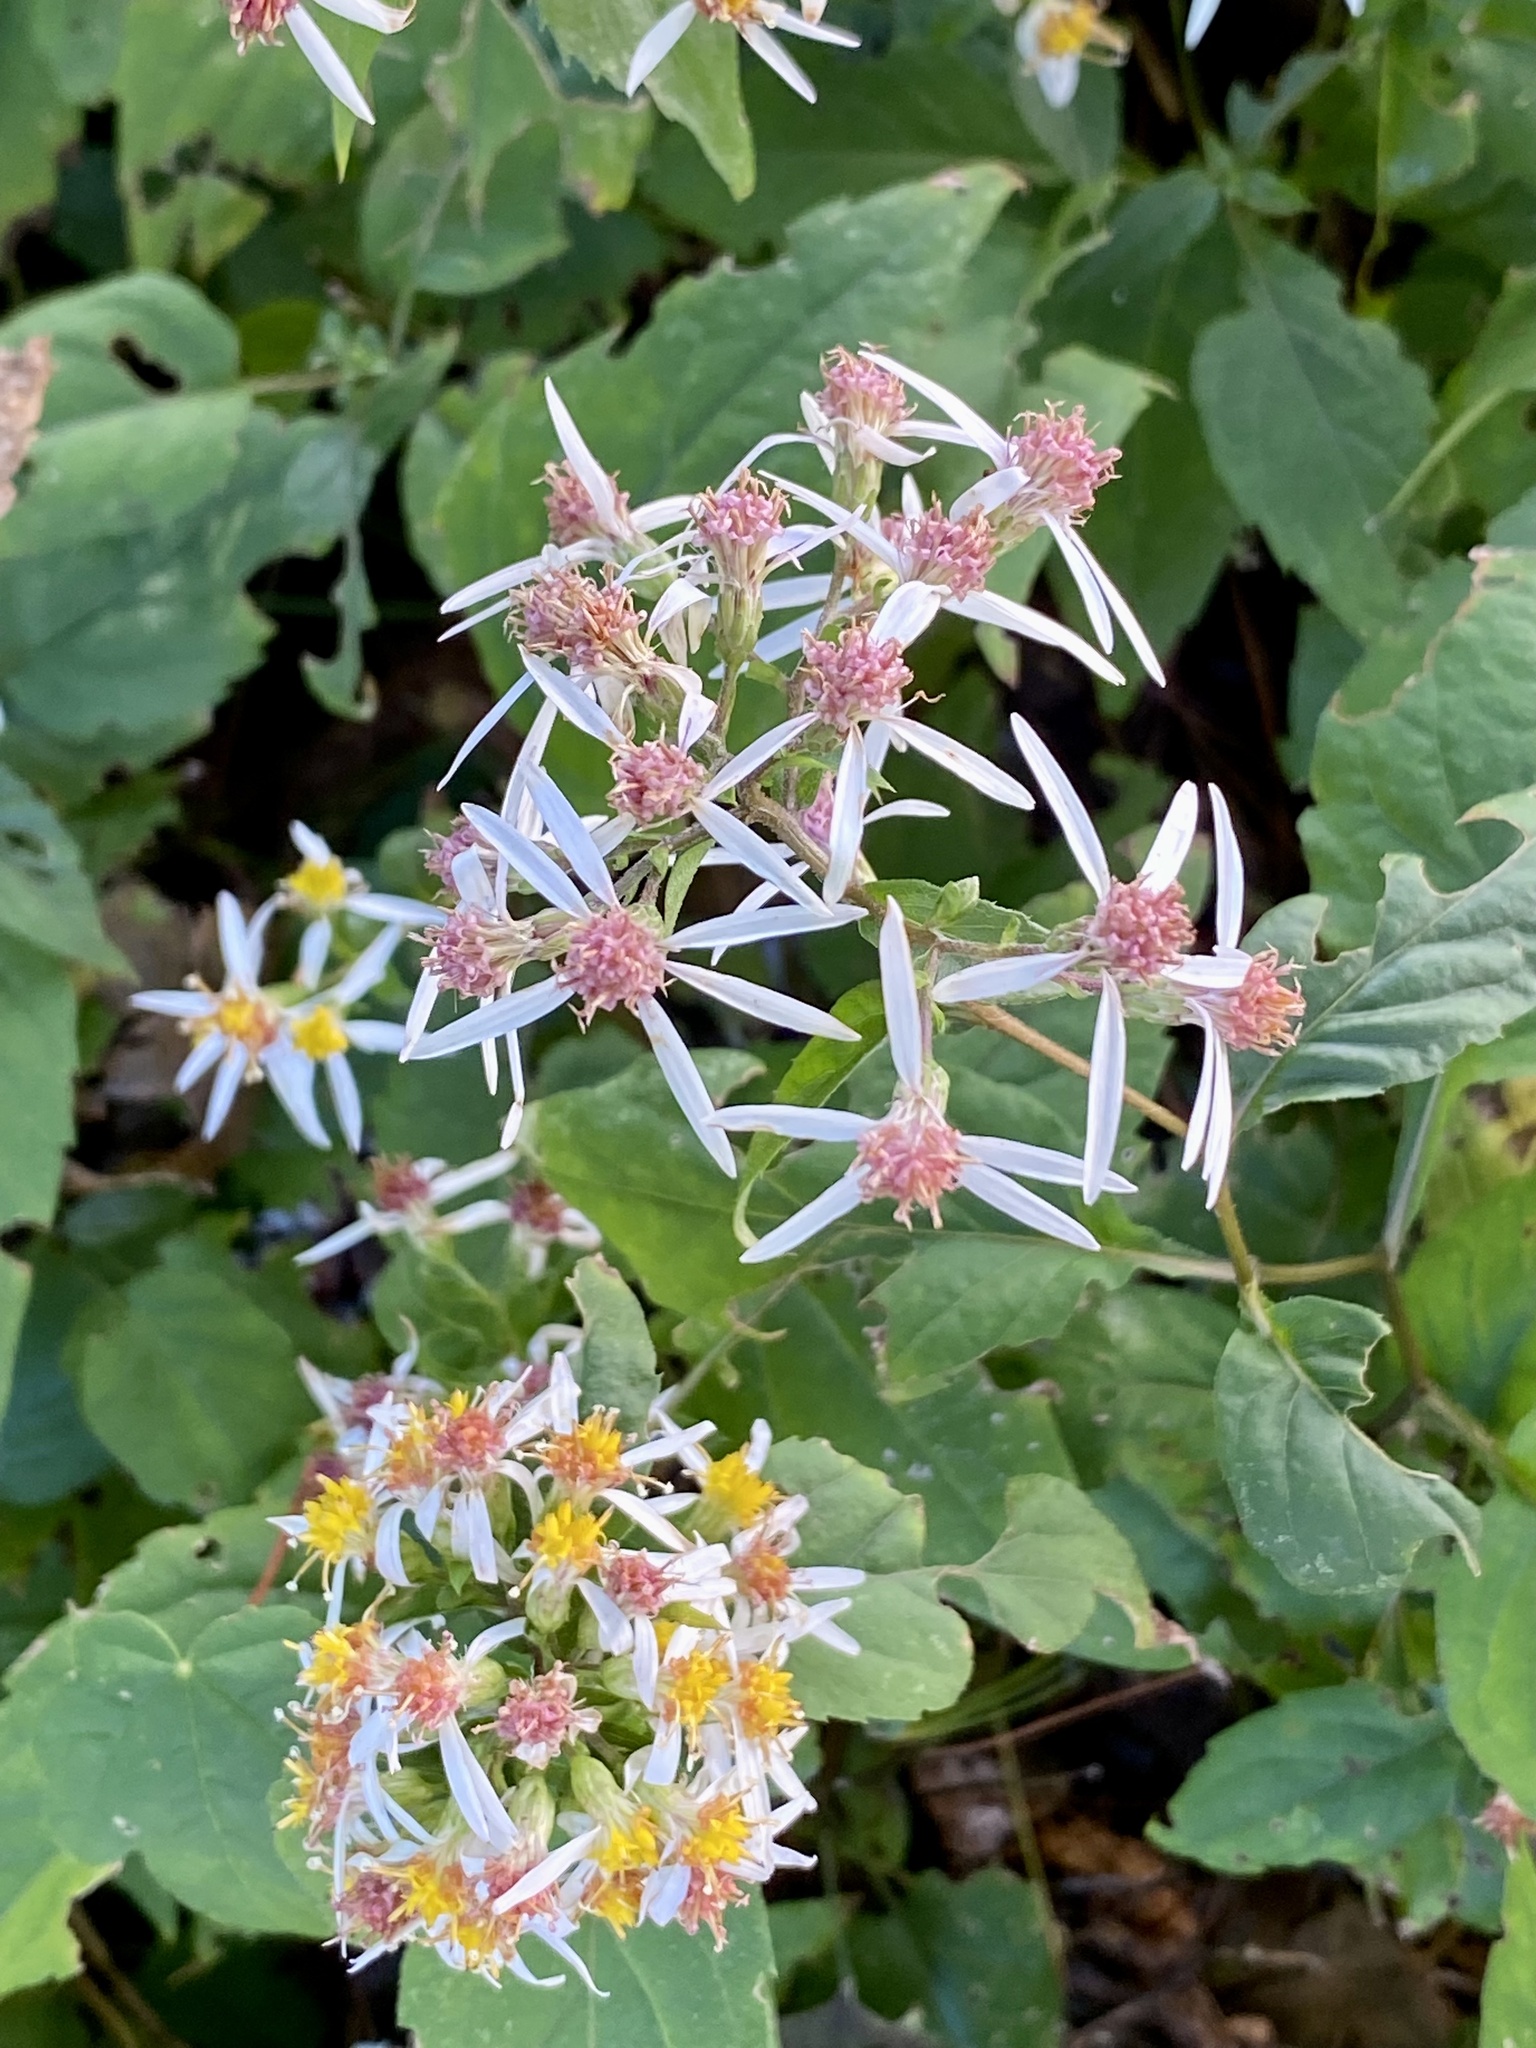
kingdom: Plantae
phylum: Tracheophyta
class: Magnoliopsida
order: Asterales
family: Asteraceae
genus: Eurybia
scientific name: Eurybia divaricata
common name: White wood aster
